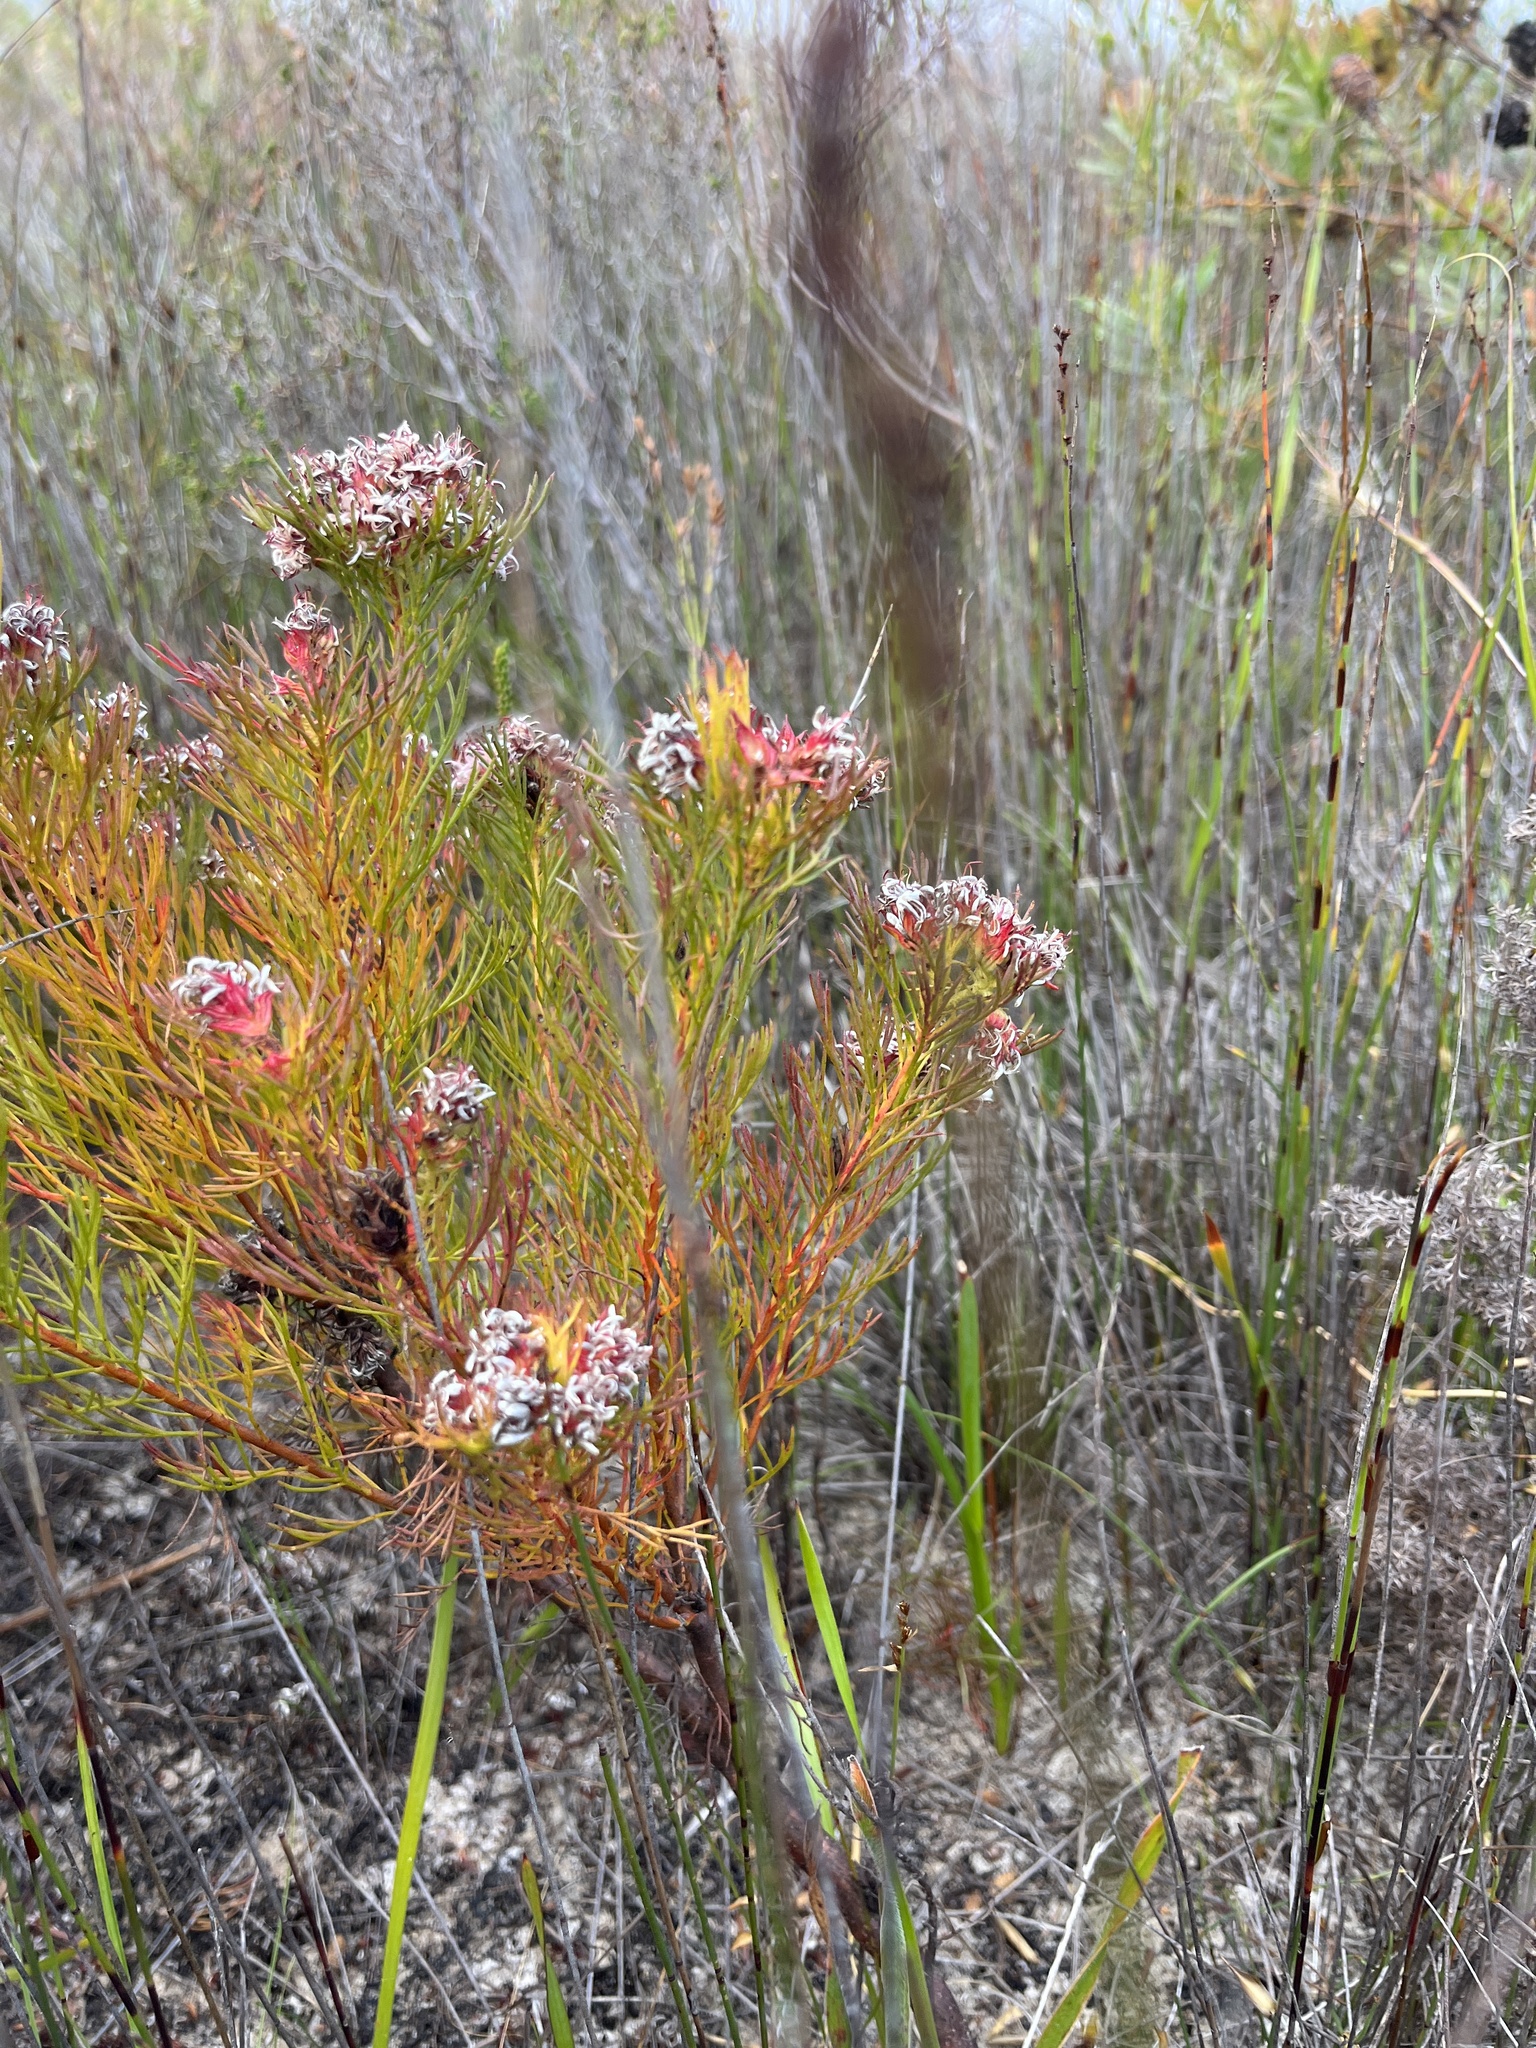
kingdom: Plantae
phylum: Tracheophyta
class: Magnoliopsida
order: Proteales
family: Proteaceae
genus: Serruria
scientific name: Serruria bolusii
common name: Agulhas spiderhead
